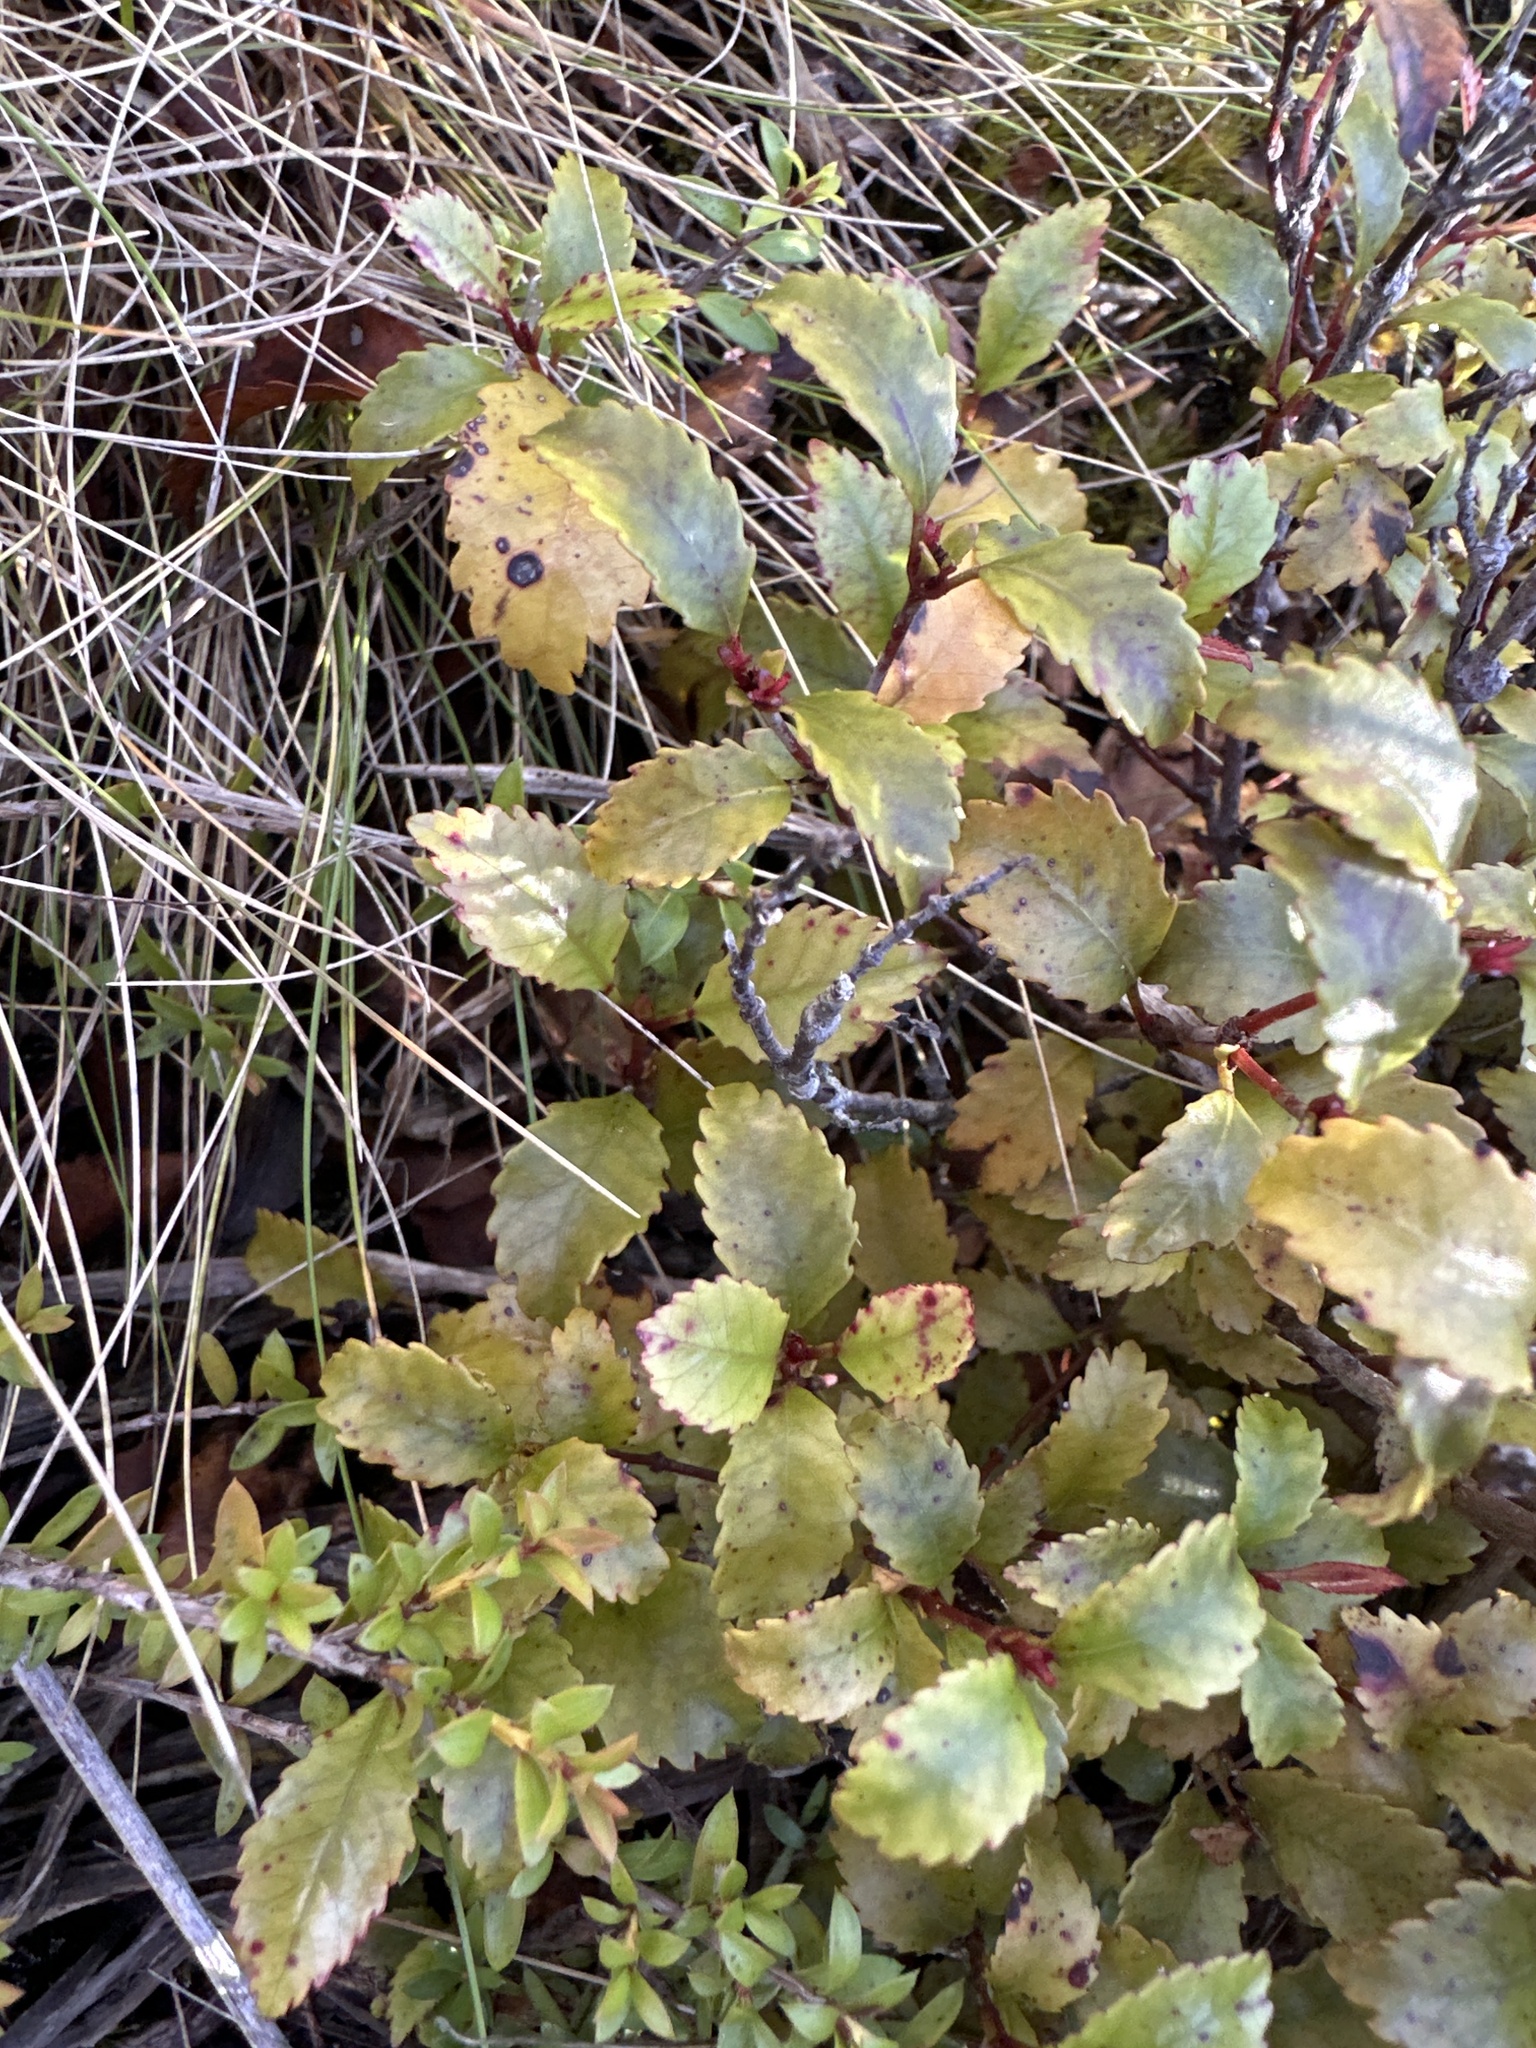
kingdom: Plantae
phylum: Tracheophyta
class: Magnoliopsida
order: Oxalidales
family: Cunoniaceae
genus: Pterophylla
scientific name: Pterophylla racemosa
